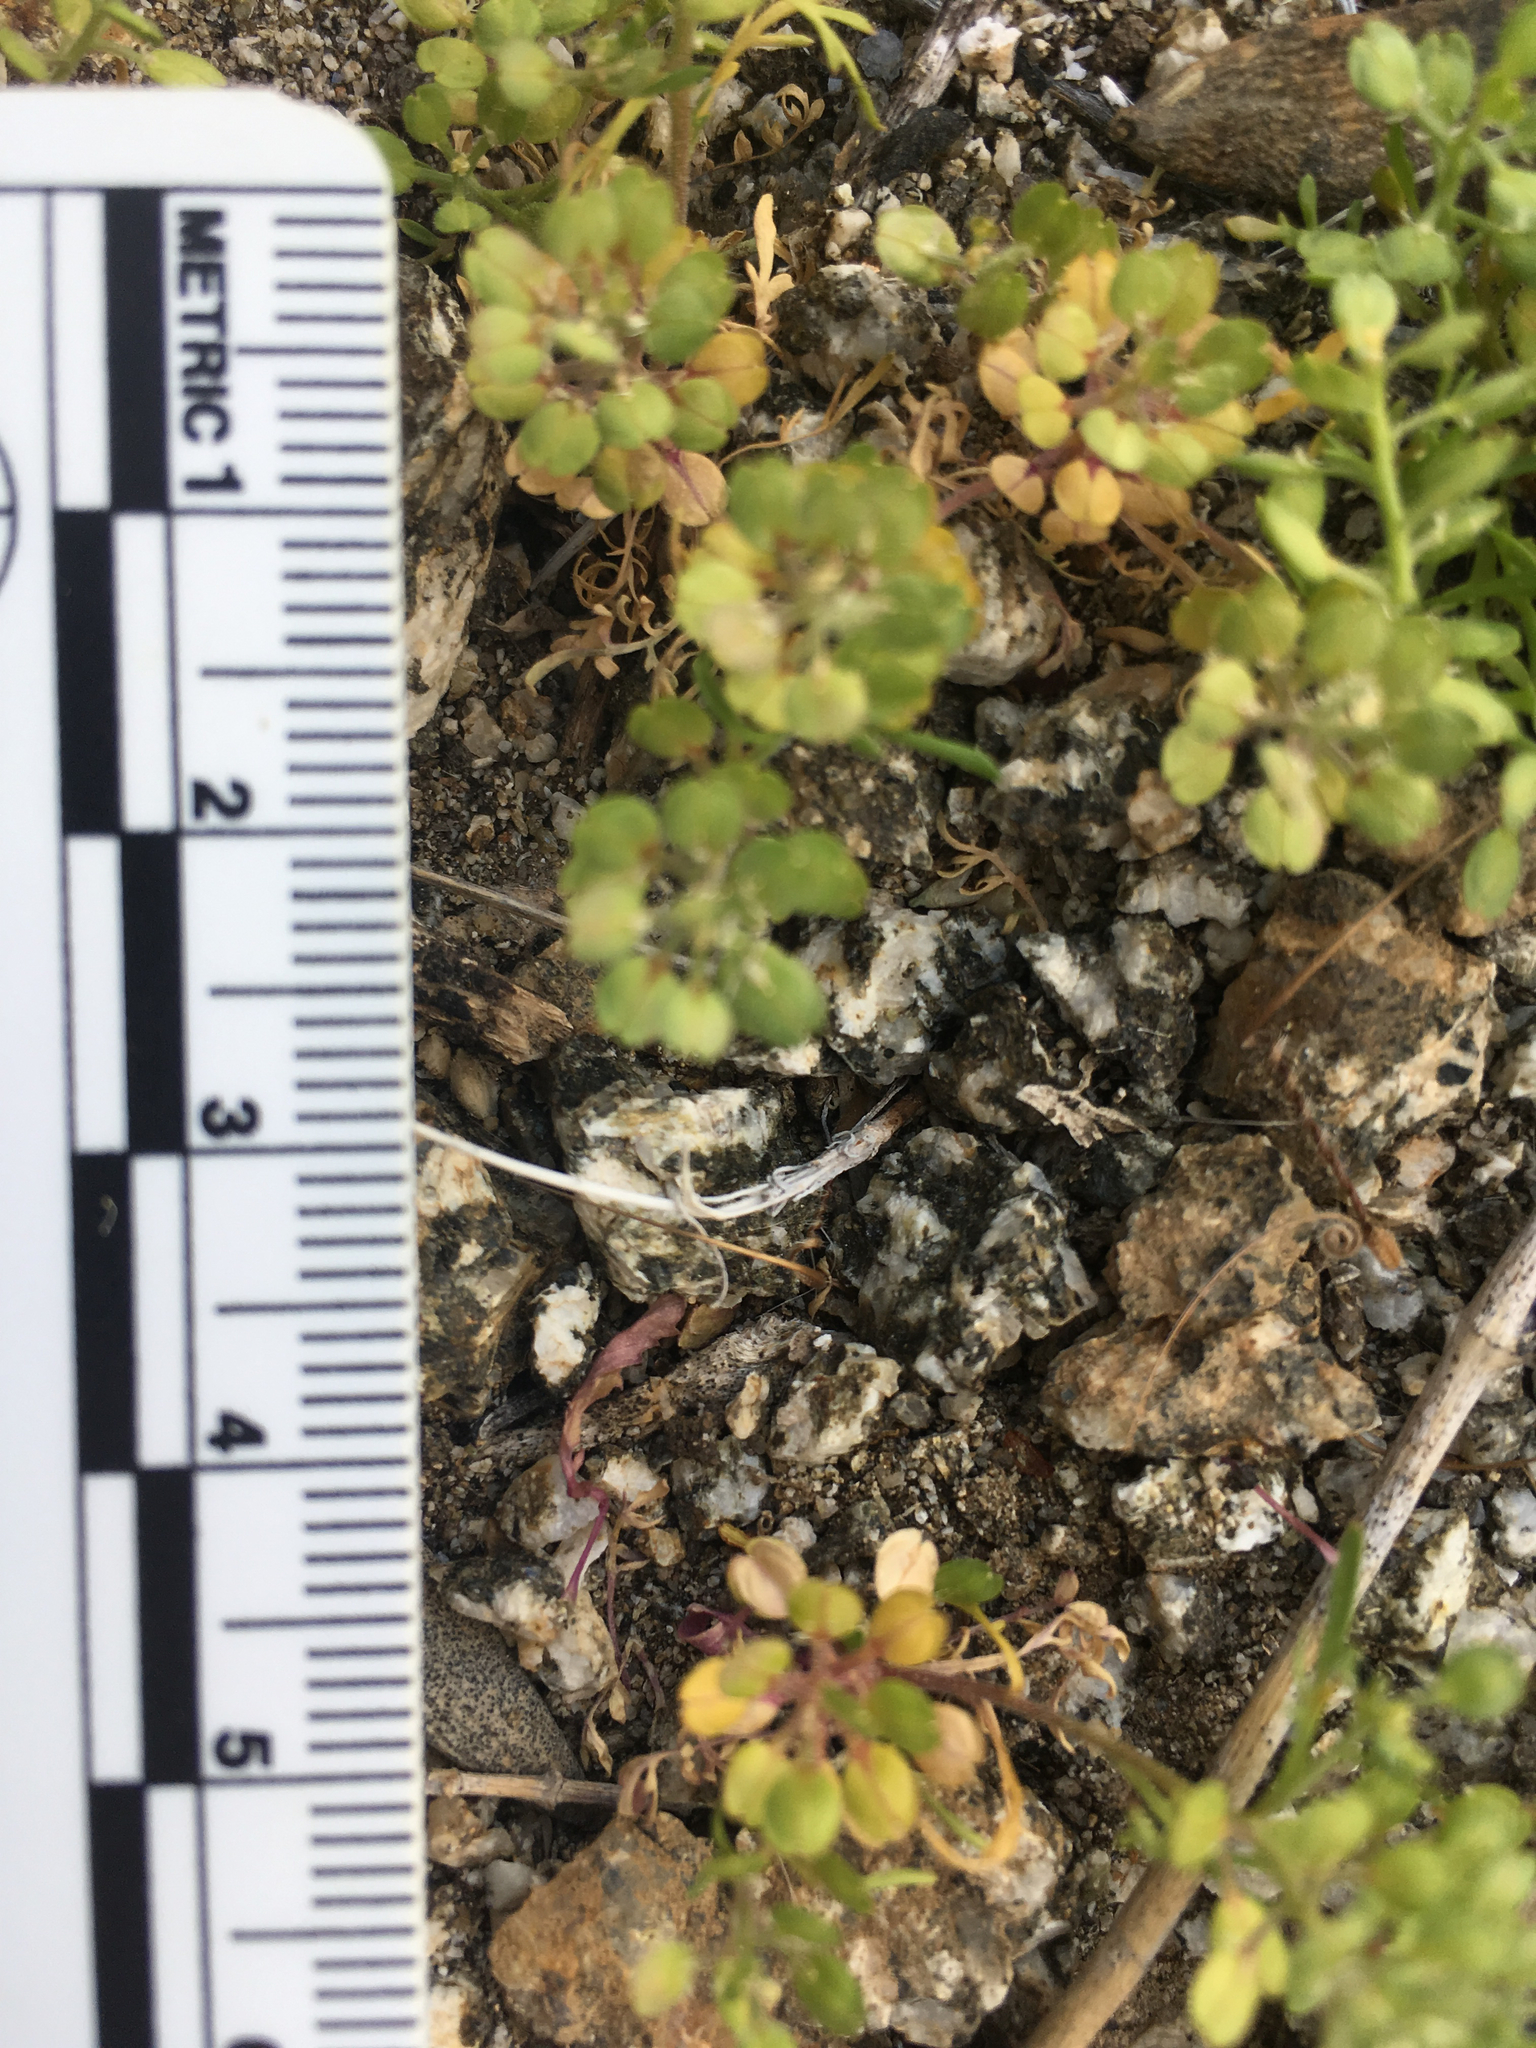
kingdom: Plantae
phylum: Tracheophyta
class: Magnoliopsida
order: Brassicales
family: Brassicaceae
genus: Lepidium
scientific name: Lepidium lasiocarpum
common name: Hairy-pod pepperwort
